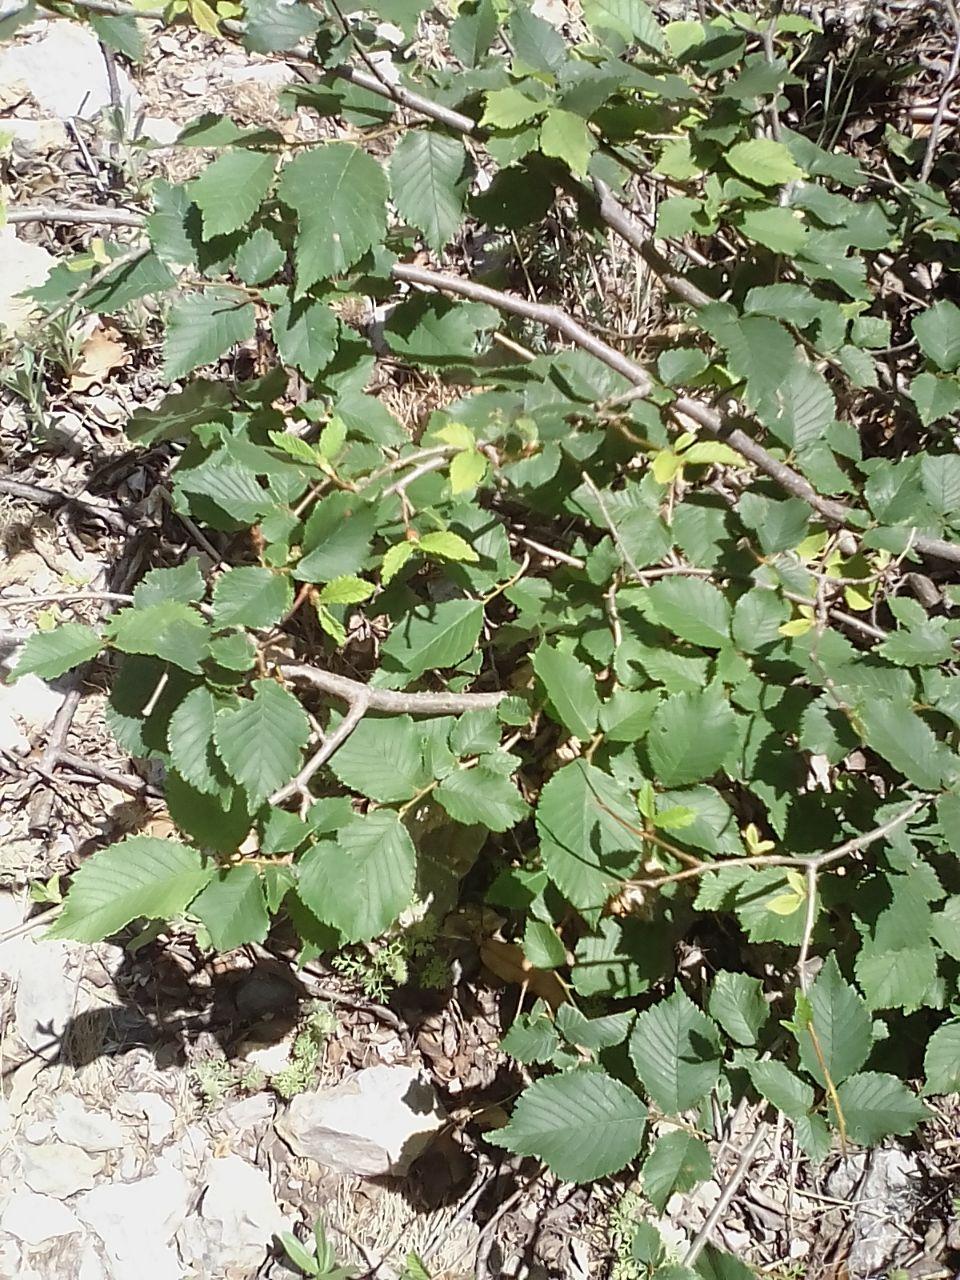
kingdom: Plantae
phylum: Tracheophyta
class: Magnoliopsida
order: Rosales
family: Ulmaceae
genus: Ulmus
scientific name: Ulmus minor
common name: Small-leaved elm
